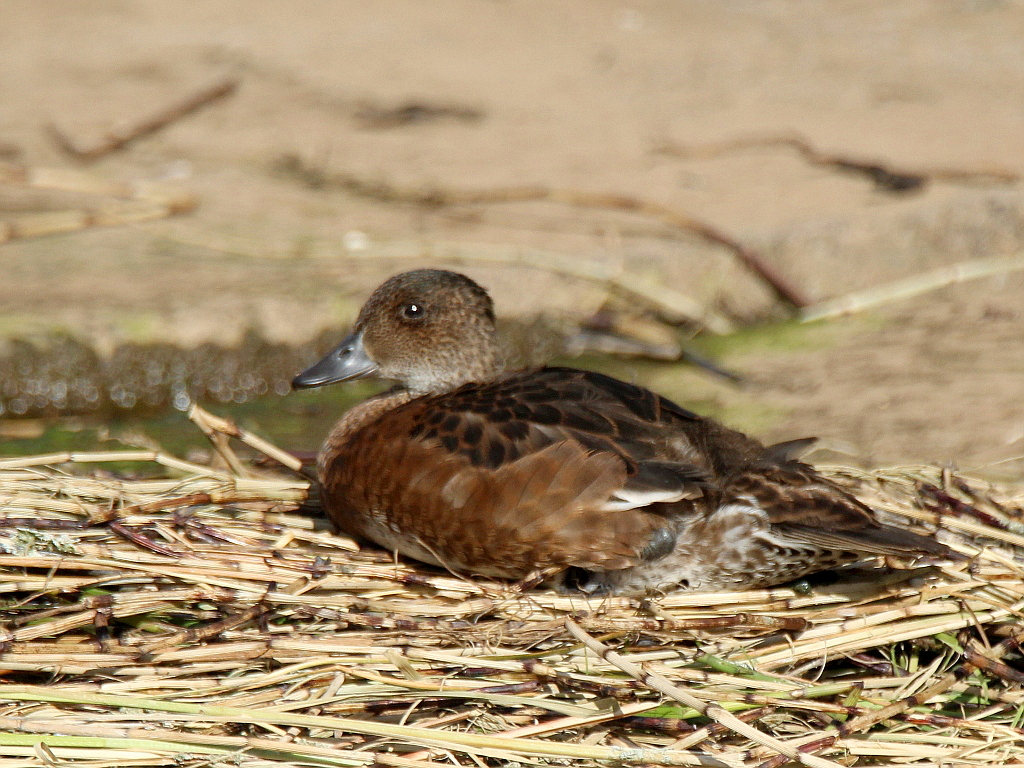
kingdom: Animalia
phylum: Chordata
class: Aves
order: Anseriformes
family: Anatidae
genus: Mareca
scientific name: Mareca penelope
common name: Eurasian wigeon
